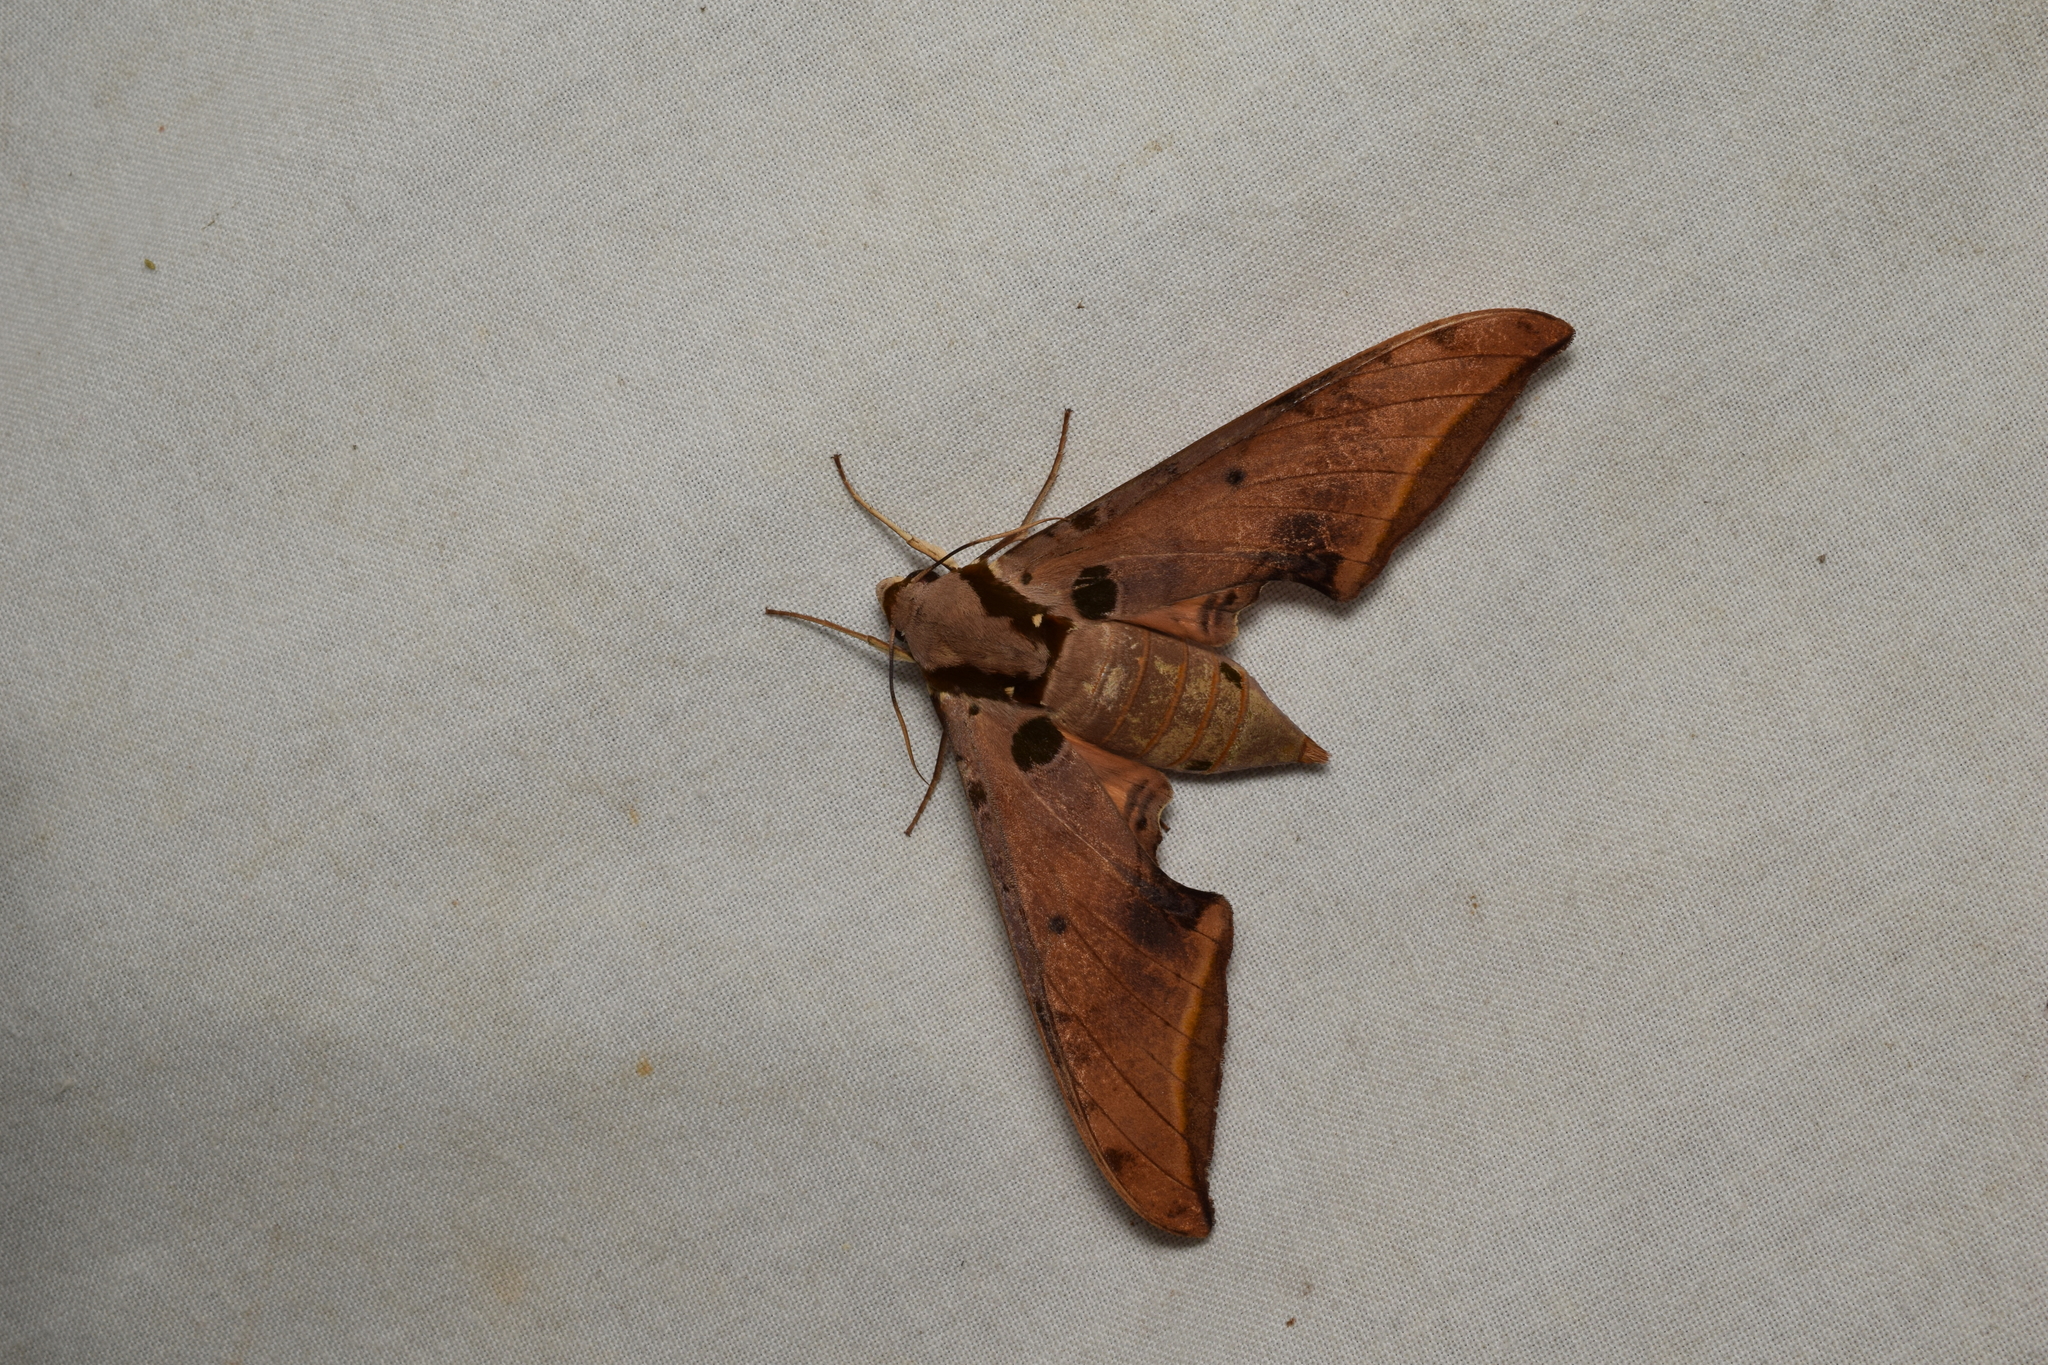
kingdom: Animalia
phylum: Arthropoda
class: Insecta
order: Lepidoptera
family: Sphingidae
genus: Ambulyx
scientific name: Ambulyx ochracea
